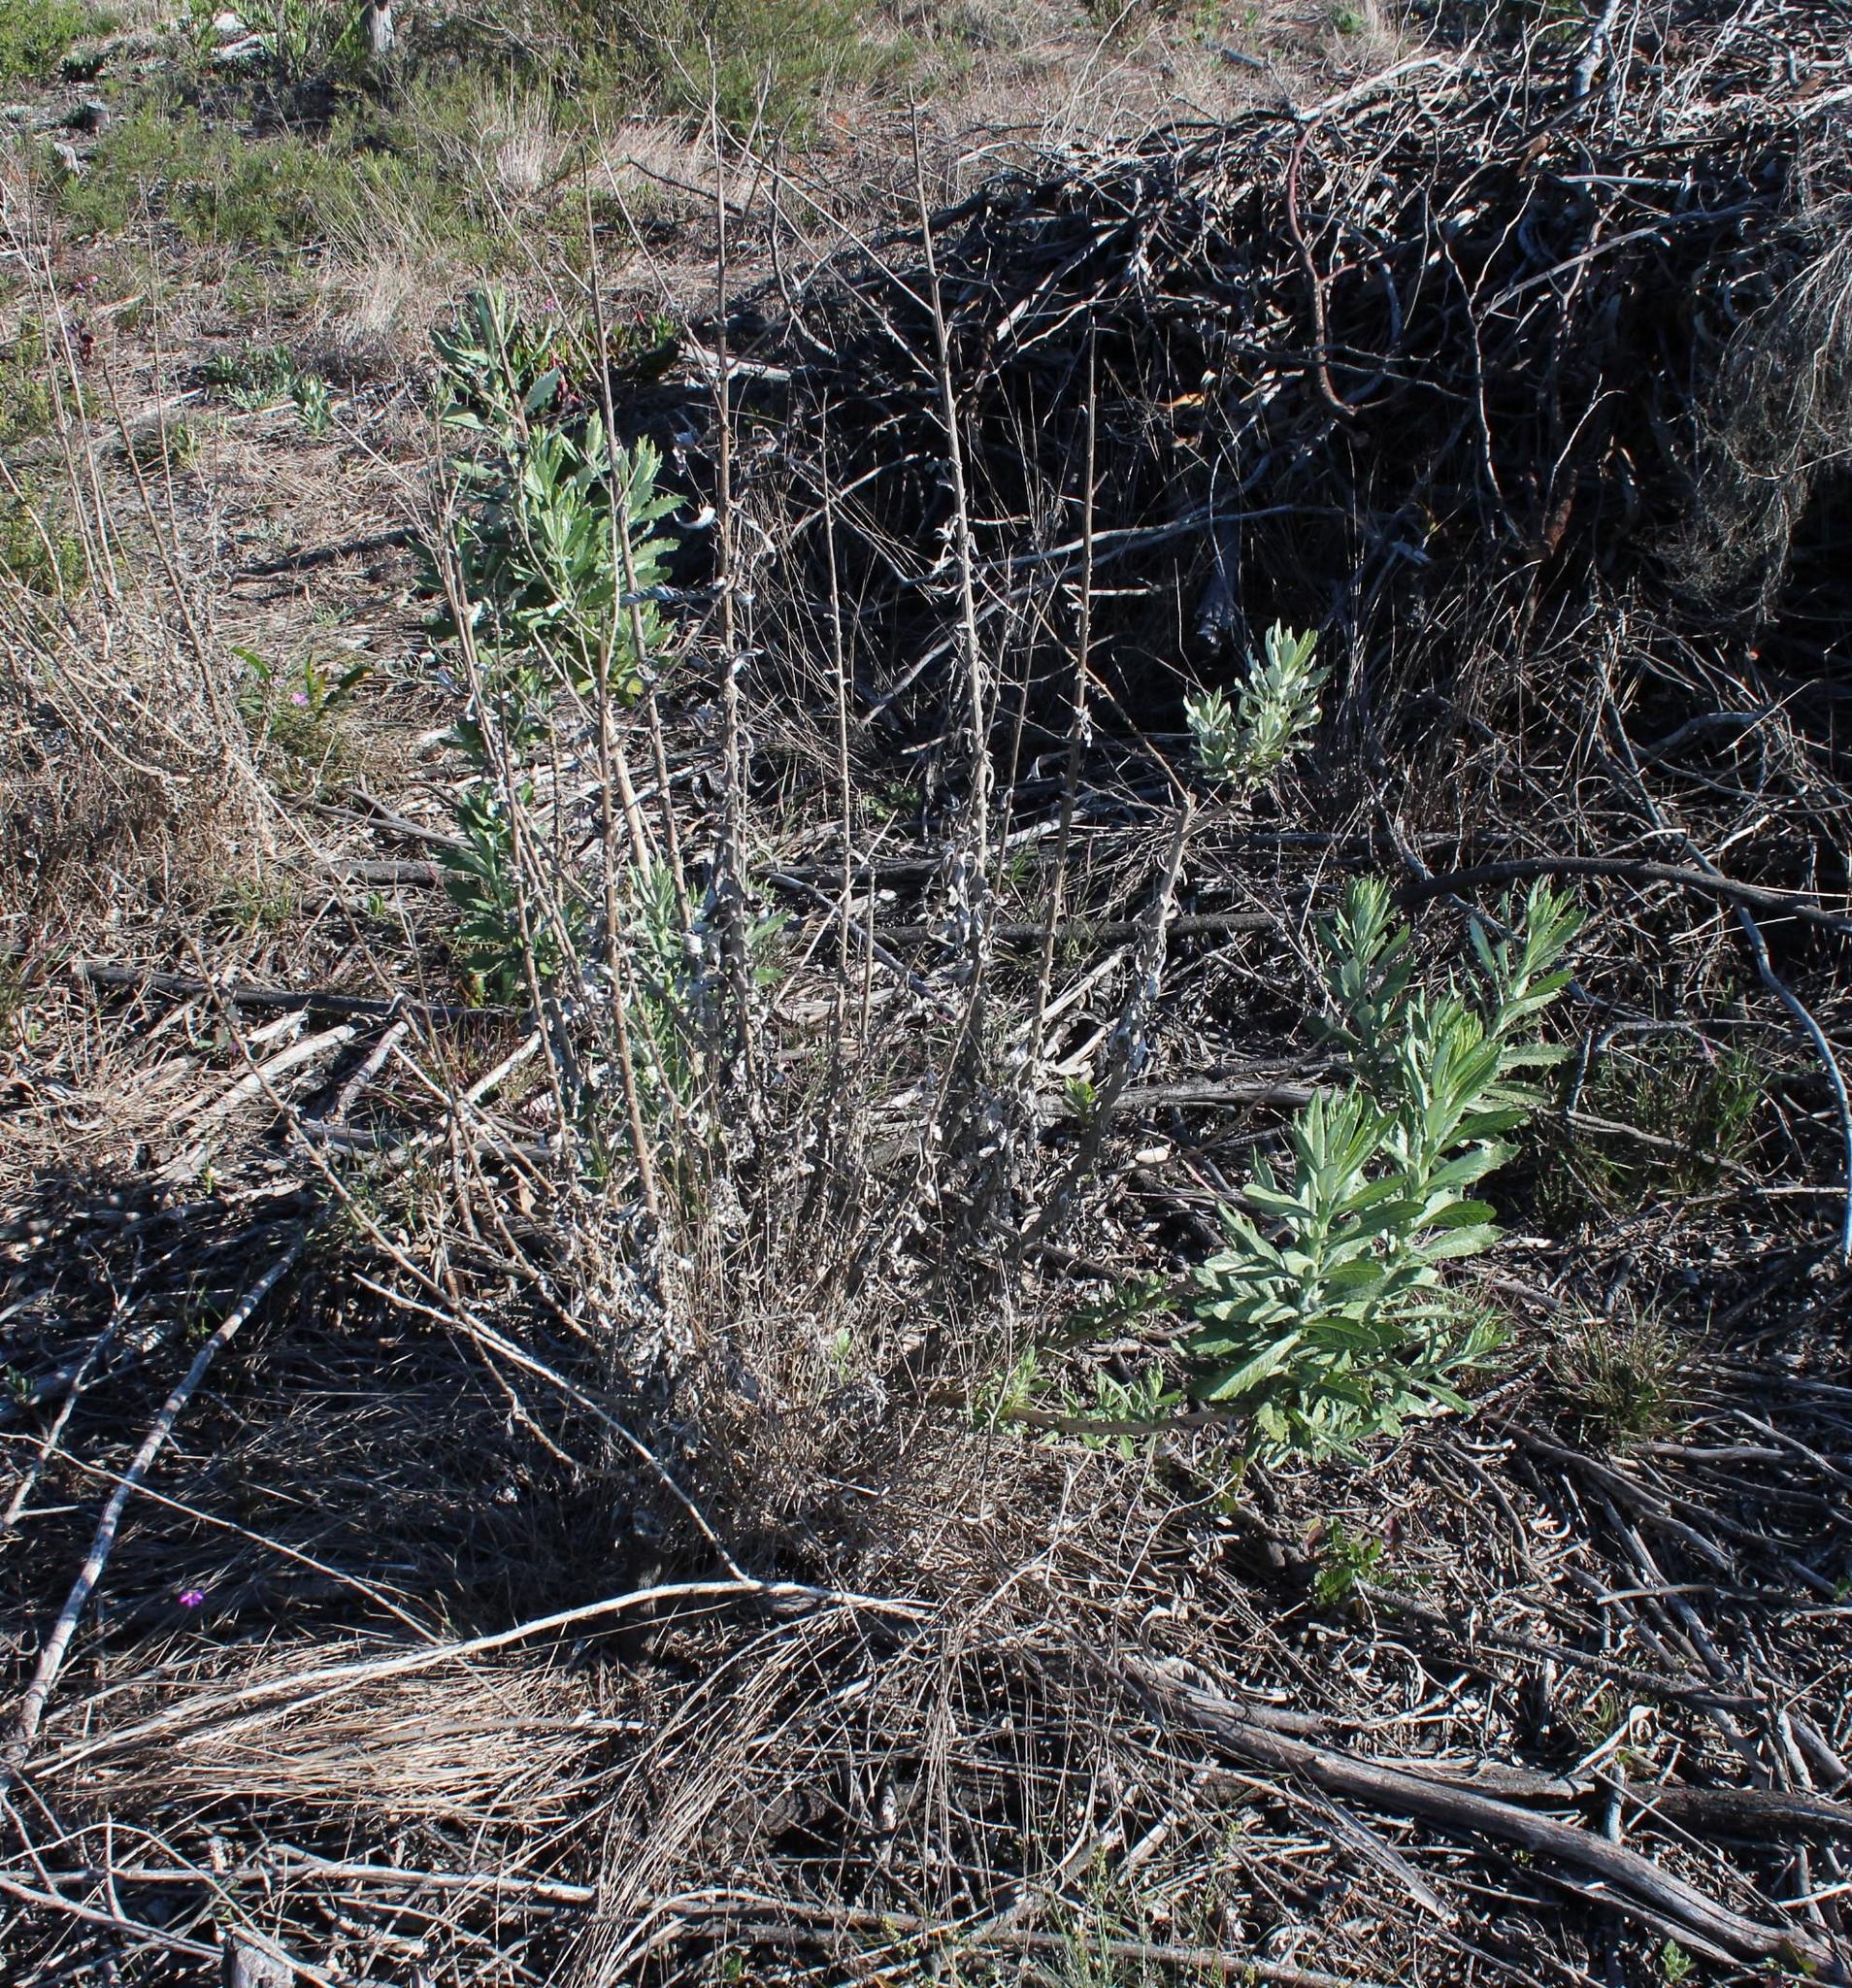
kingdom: Plantae
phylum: Tracheophyta
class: Magnoliopsida
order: Asterales
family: Asteraceae
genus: Senecio
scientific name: Senecio pterophorus
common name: Shoddy ragwort
